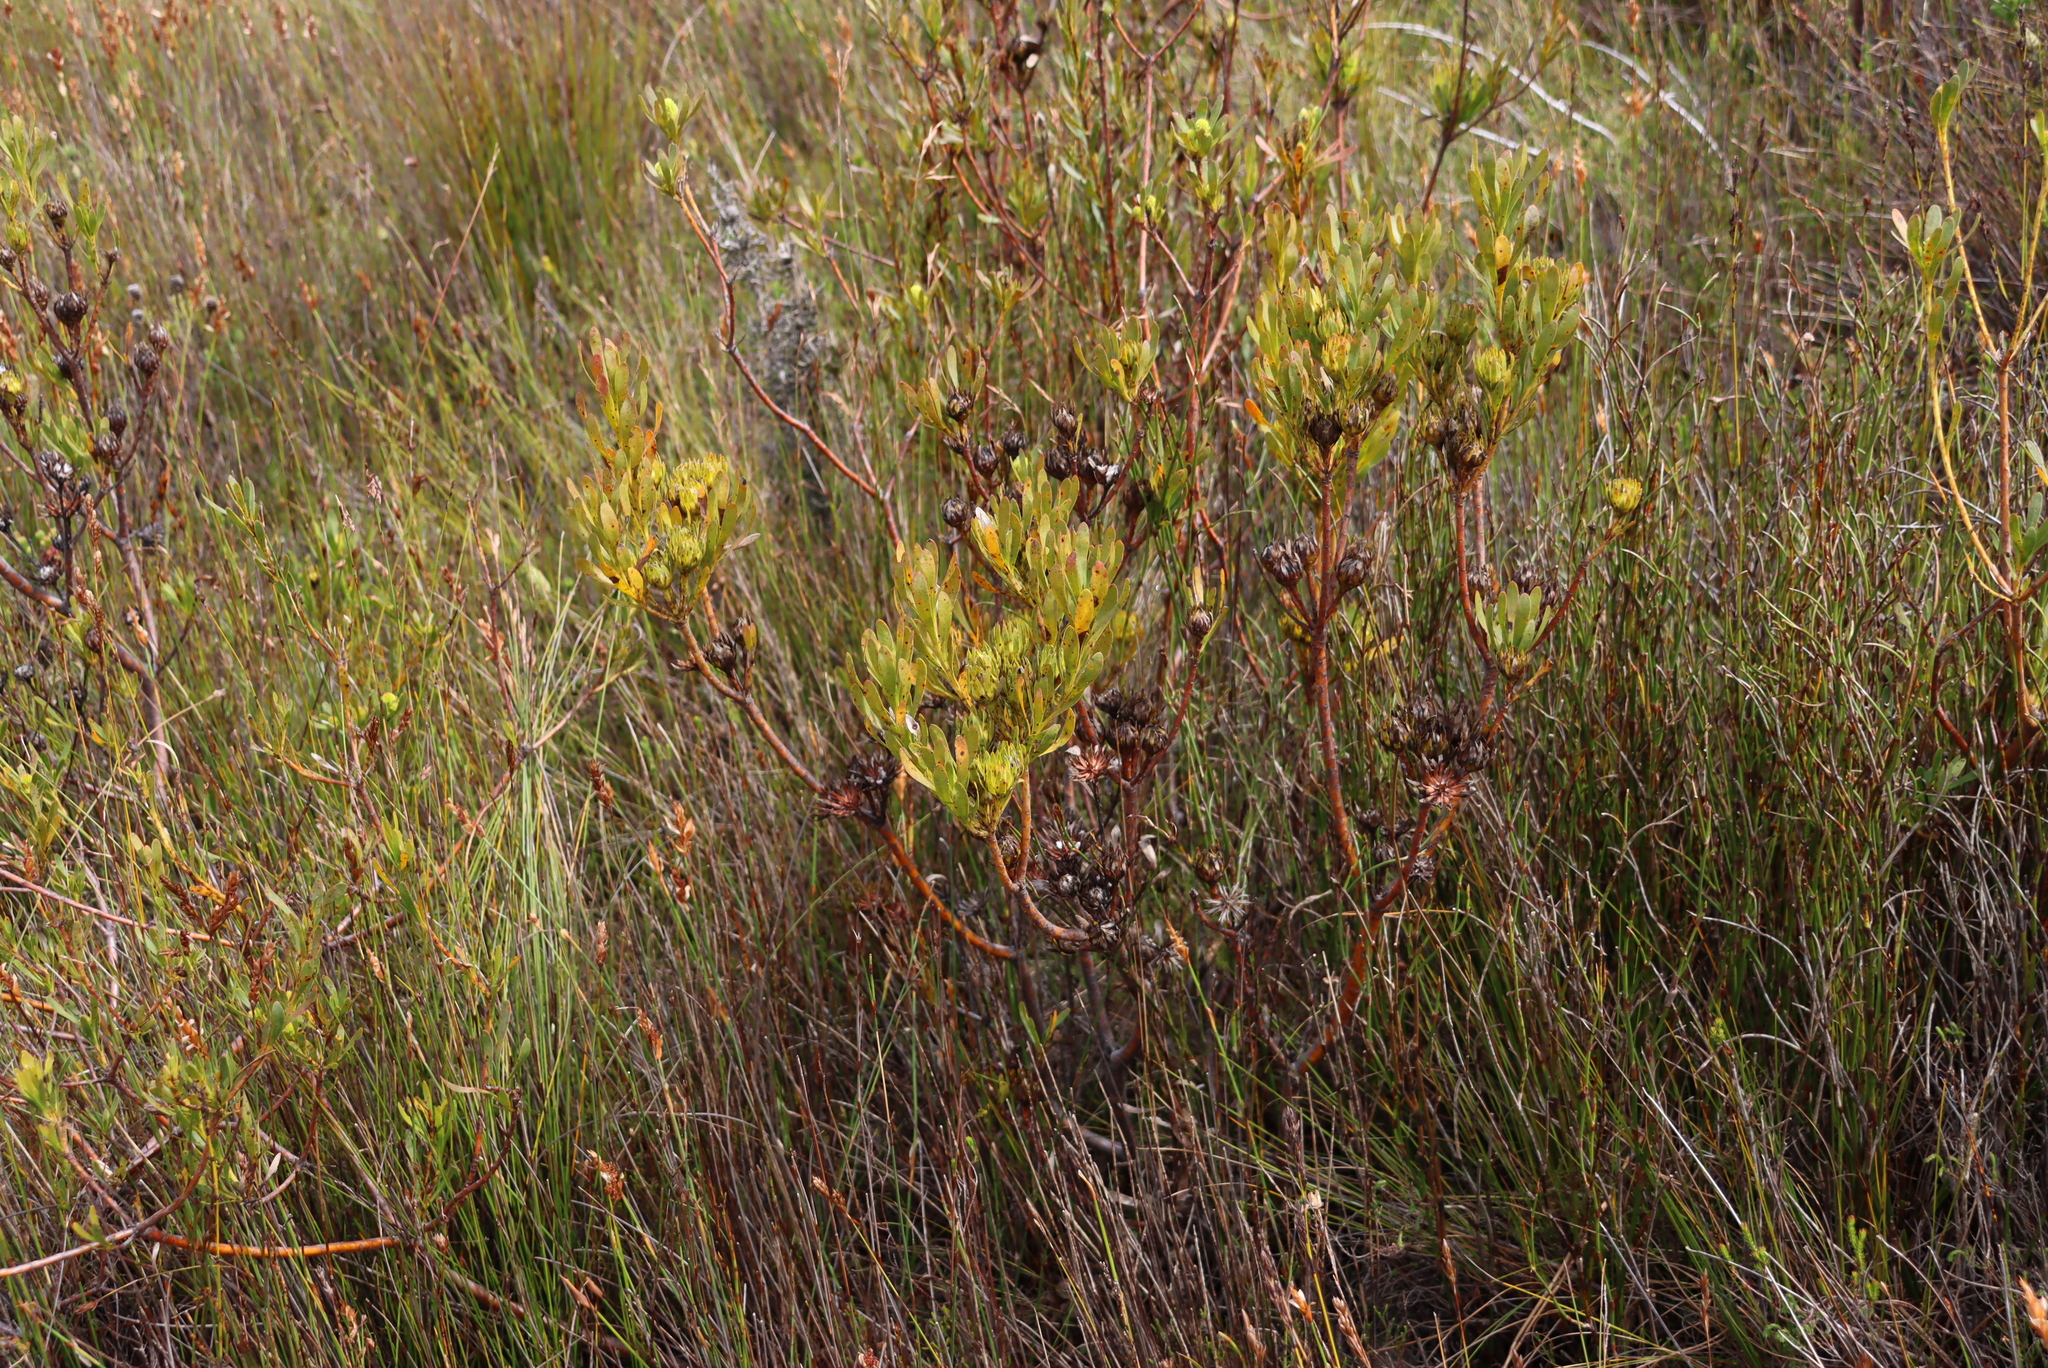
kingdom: Plantae
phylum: Tracheophyta
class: Magnoliopsida
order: Proteales
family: Proteaceae
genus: Aulax
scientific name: Aulax umbellata
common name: Broad-leaf featherbush
